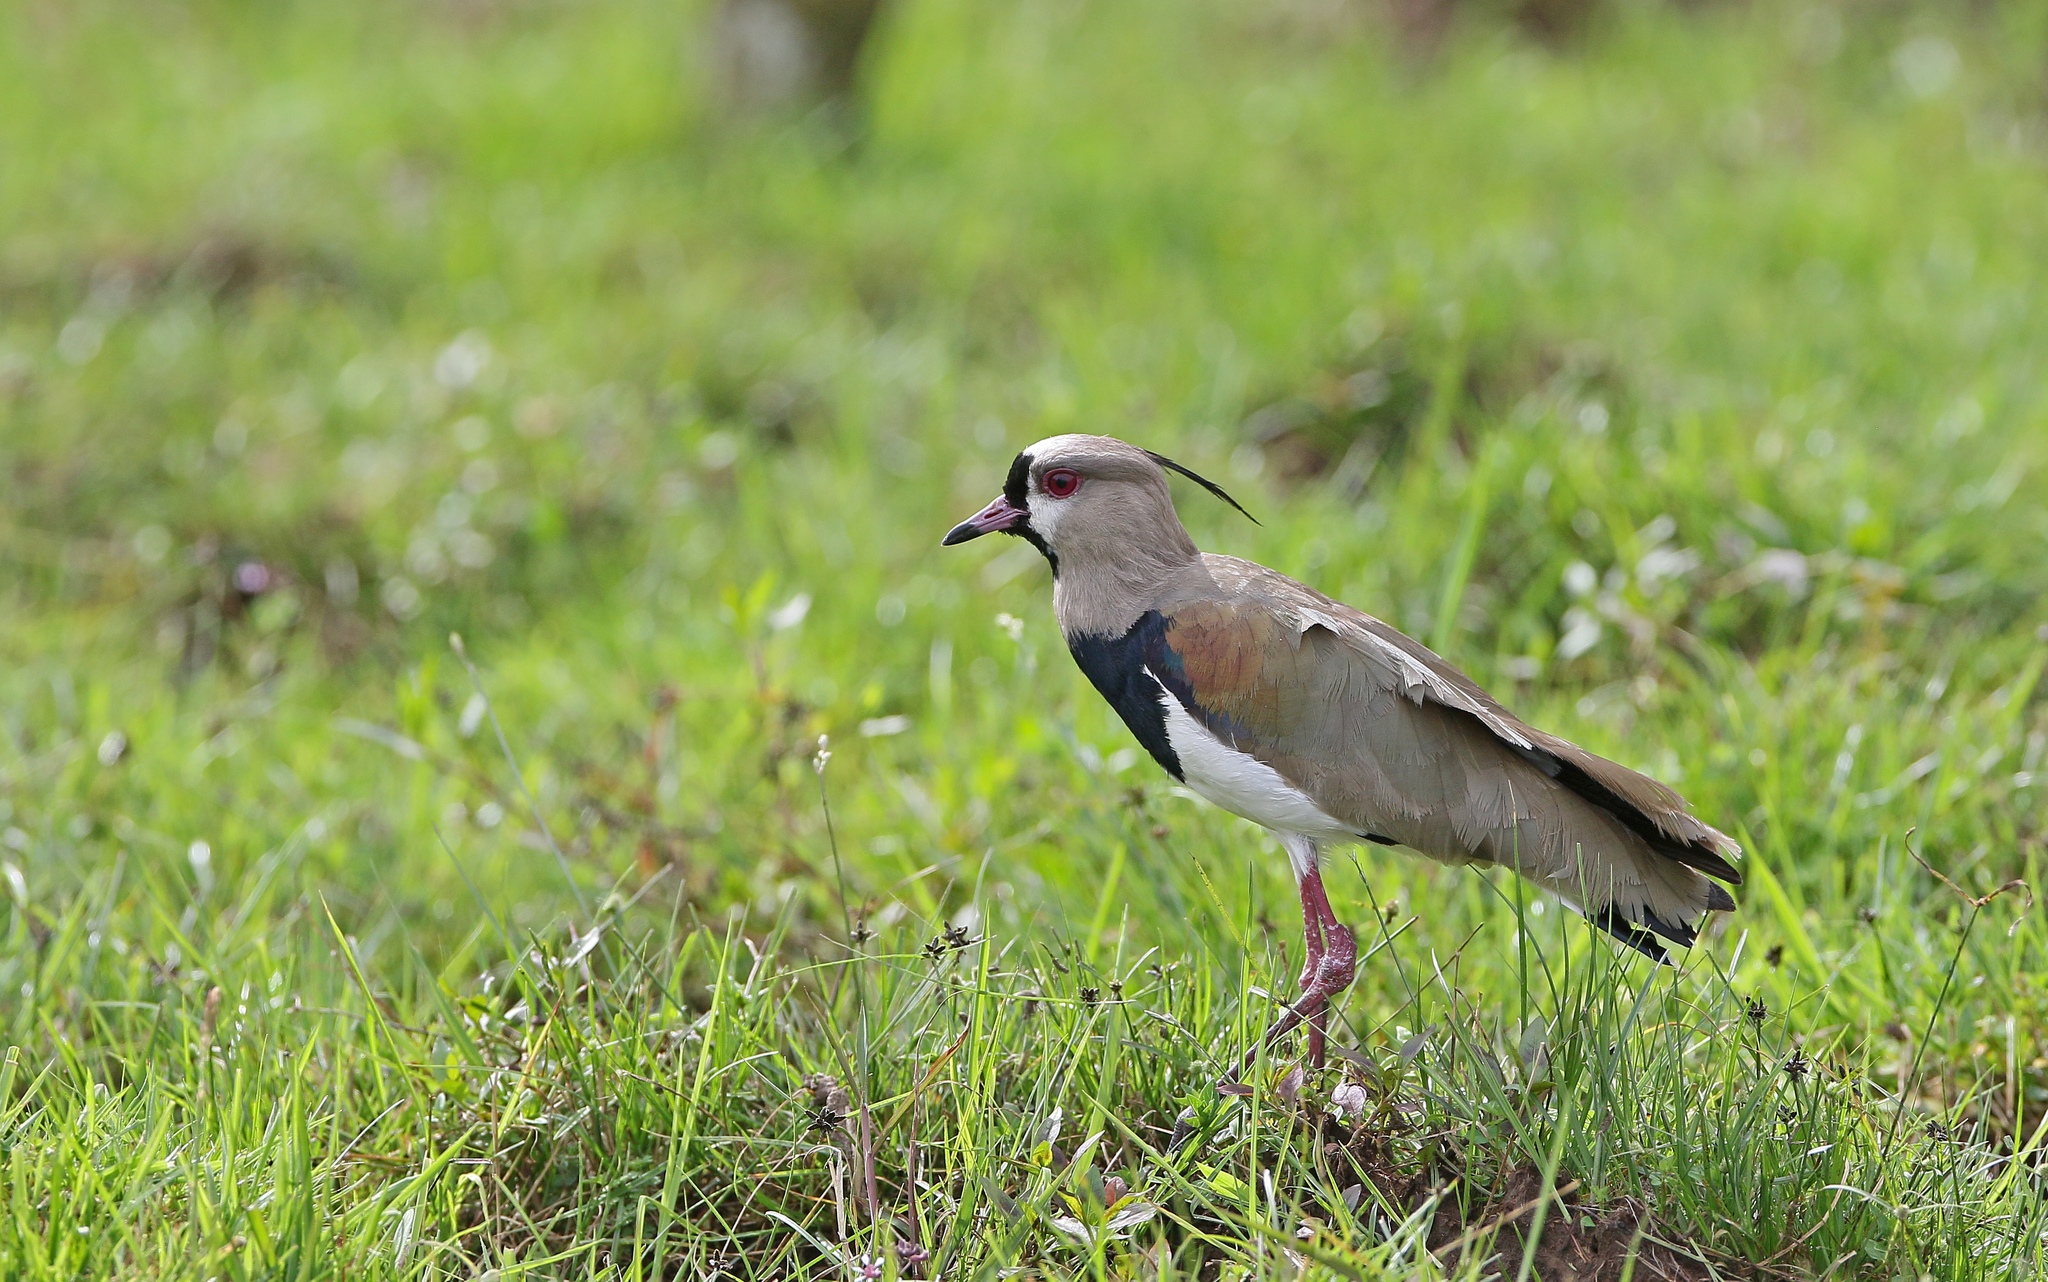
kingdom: Animalia
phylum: Chordata
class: Aves
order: Charadriiformes
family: Charadriidae
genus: Vanellus
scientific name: Vanellus chilensis
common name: Southern lapwing
